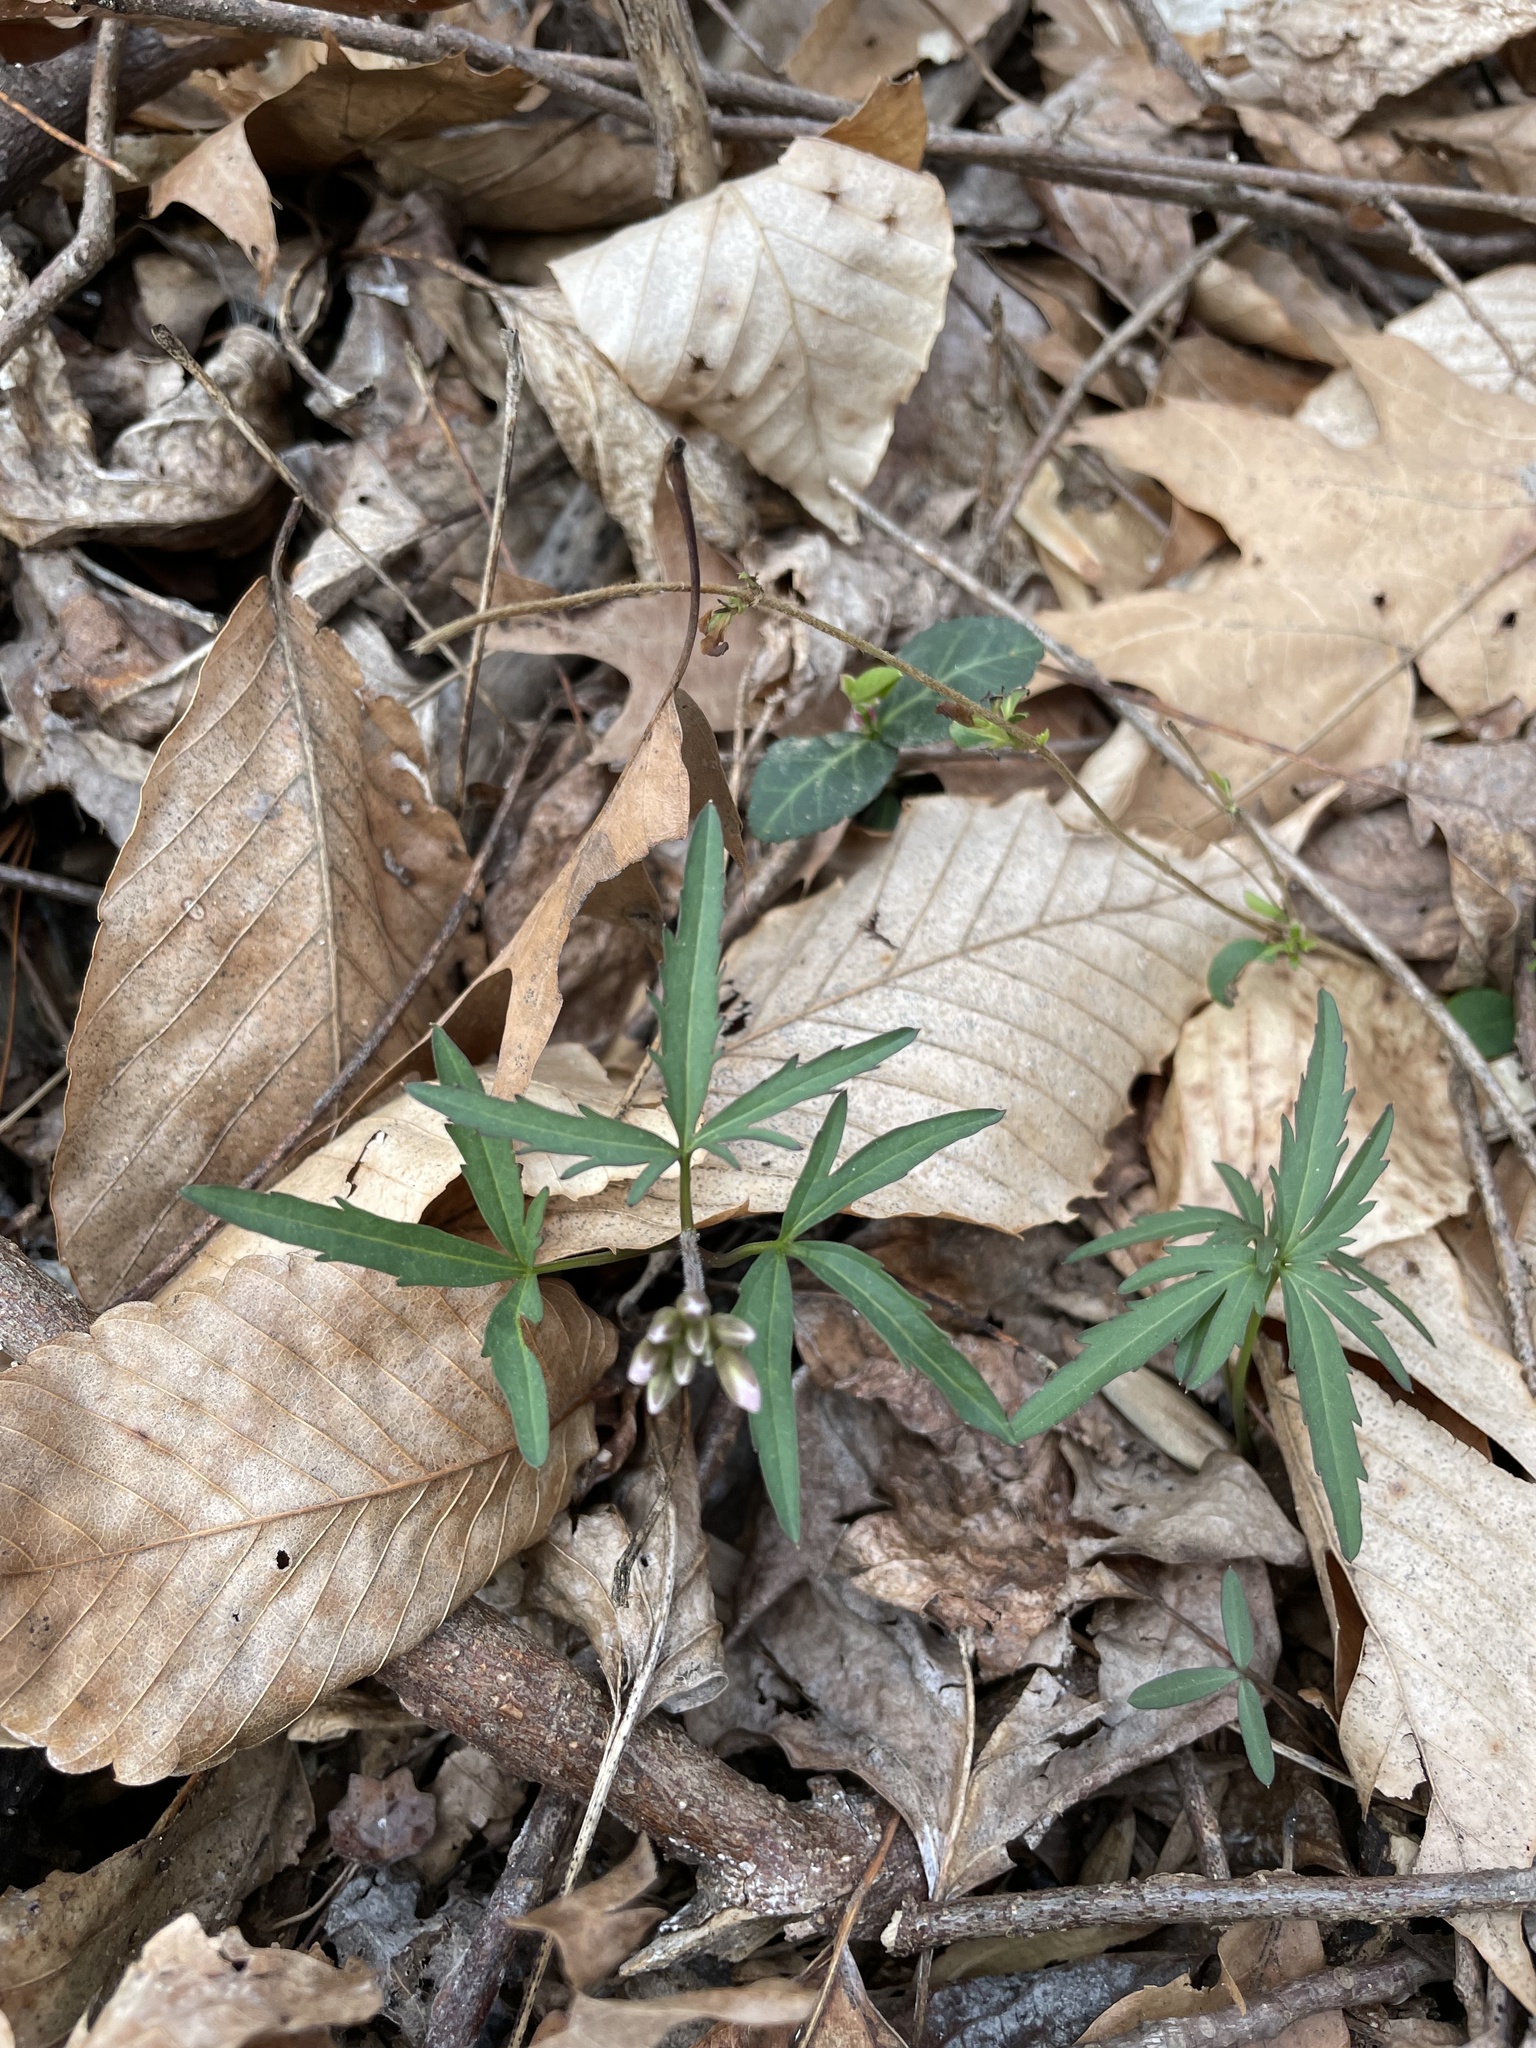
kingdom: Plantae
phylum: Tracheophyta
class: Magnoliopsida
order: Brassicales
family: Brassicaceae
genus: Cardamine
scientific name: Cardamine concatenata
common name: Cut-leaf toothcup
